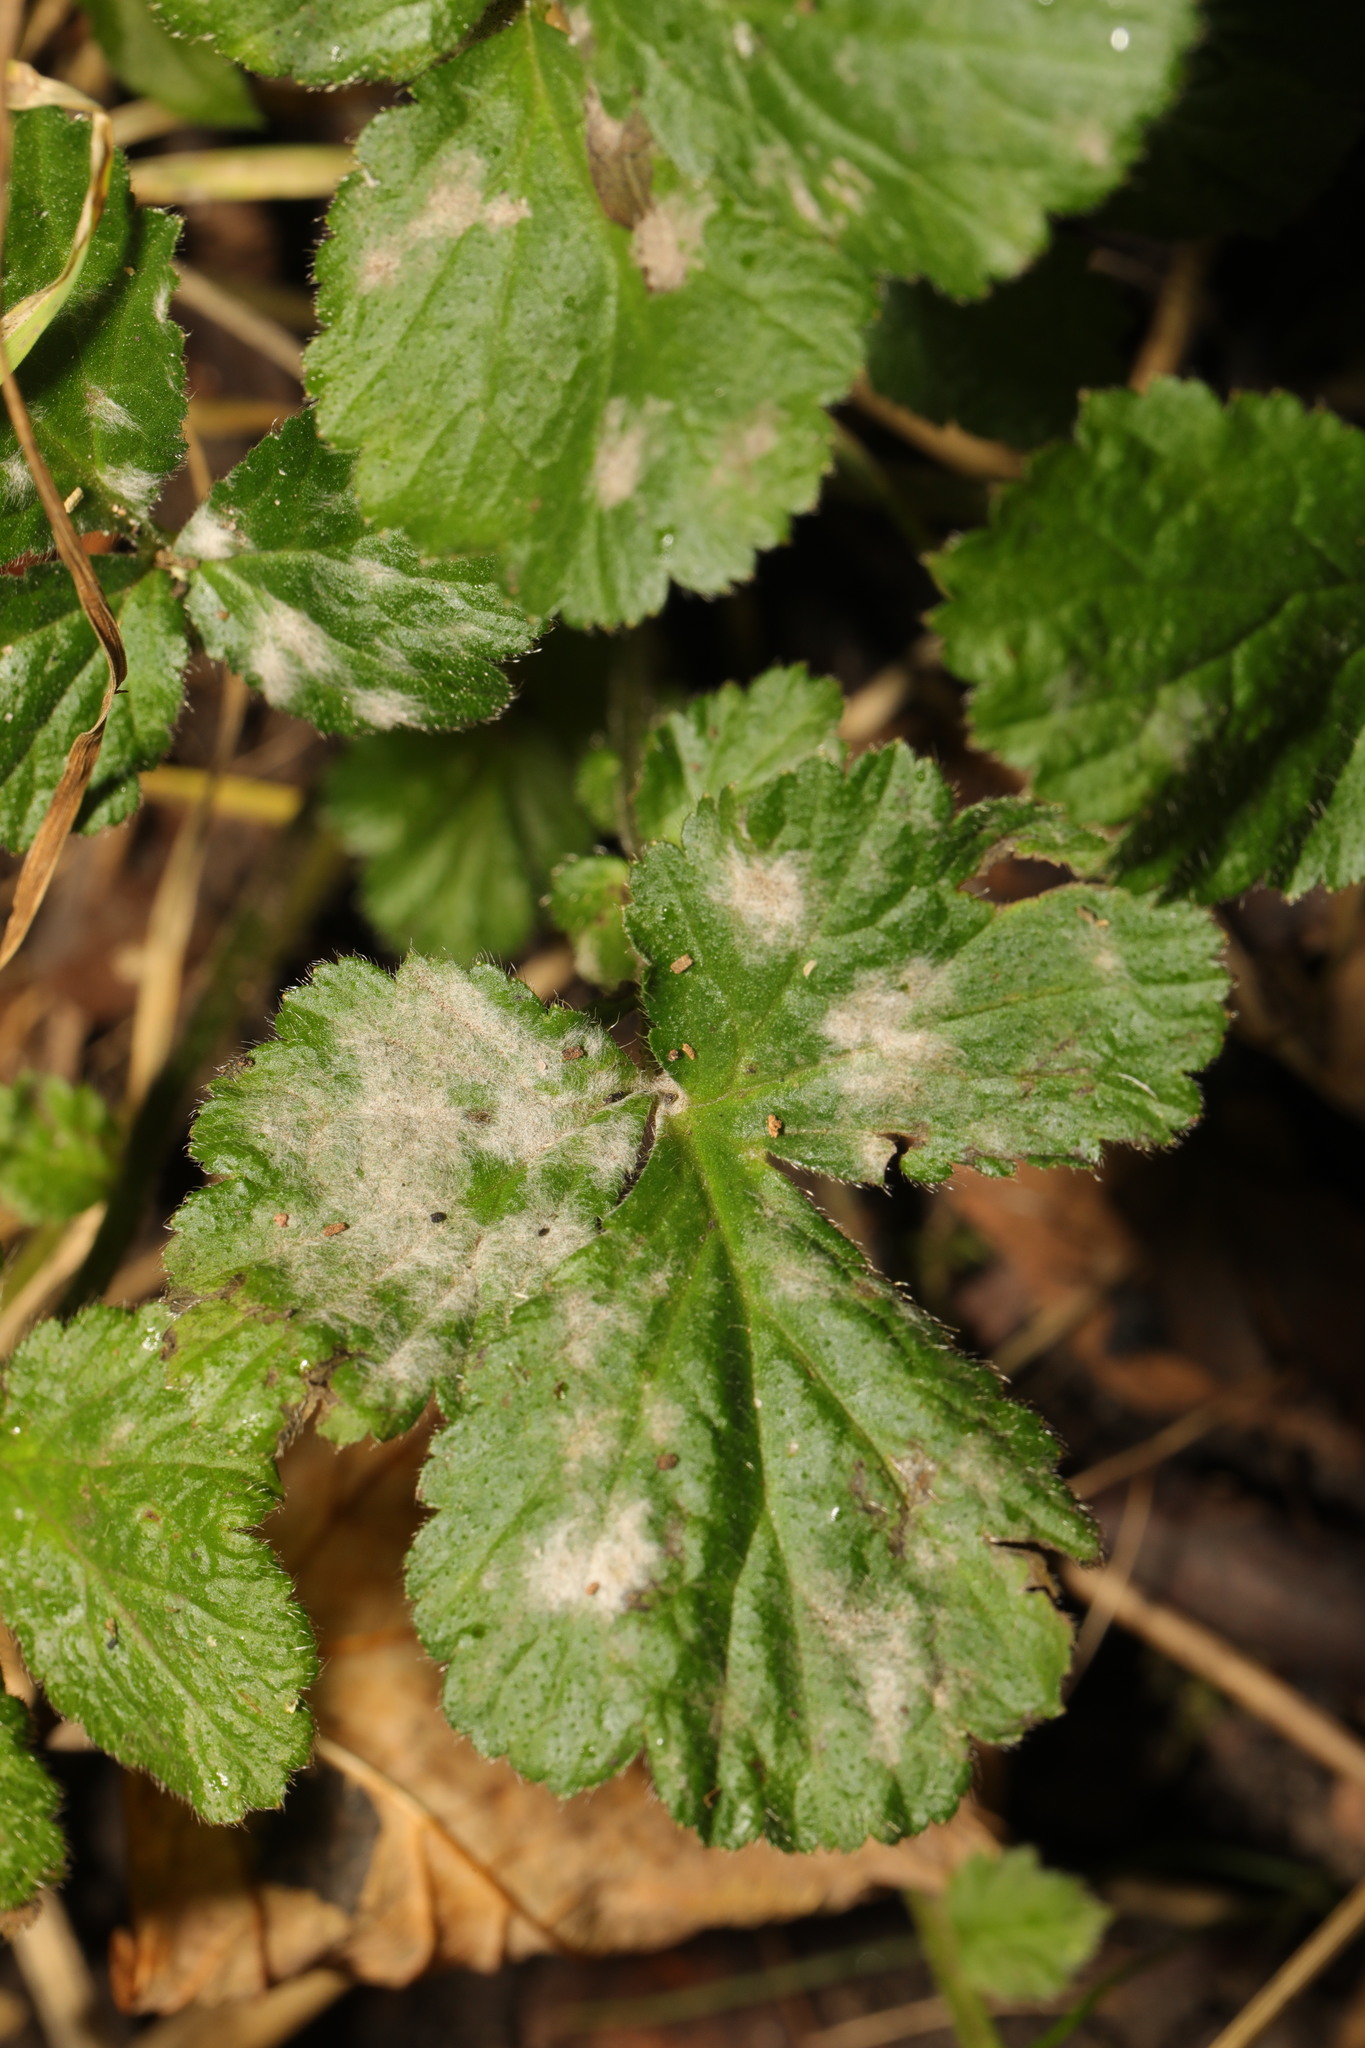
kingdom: Fungi
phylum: Ascomycota
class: Leotiomycetes
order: Helotiales
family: Erysiphaceae
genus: Podosphaera
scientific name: Podosphaera aphanis
